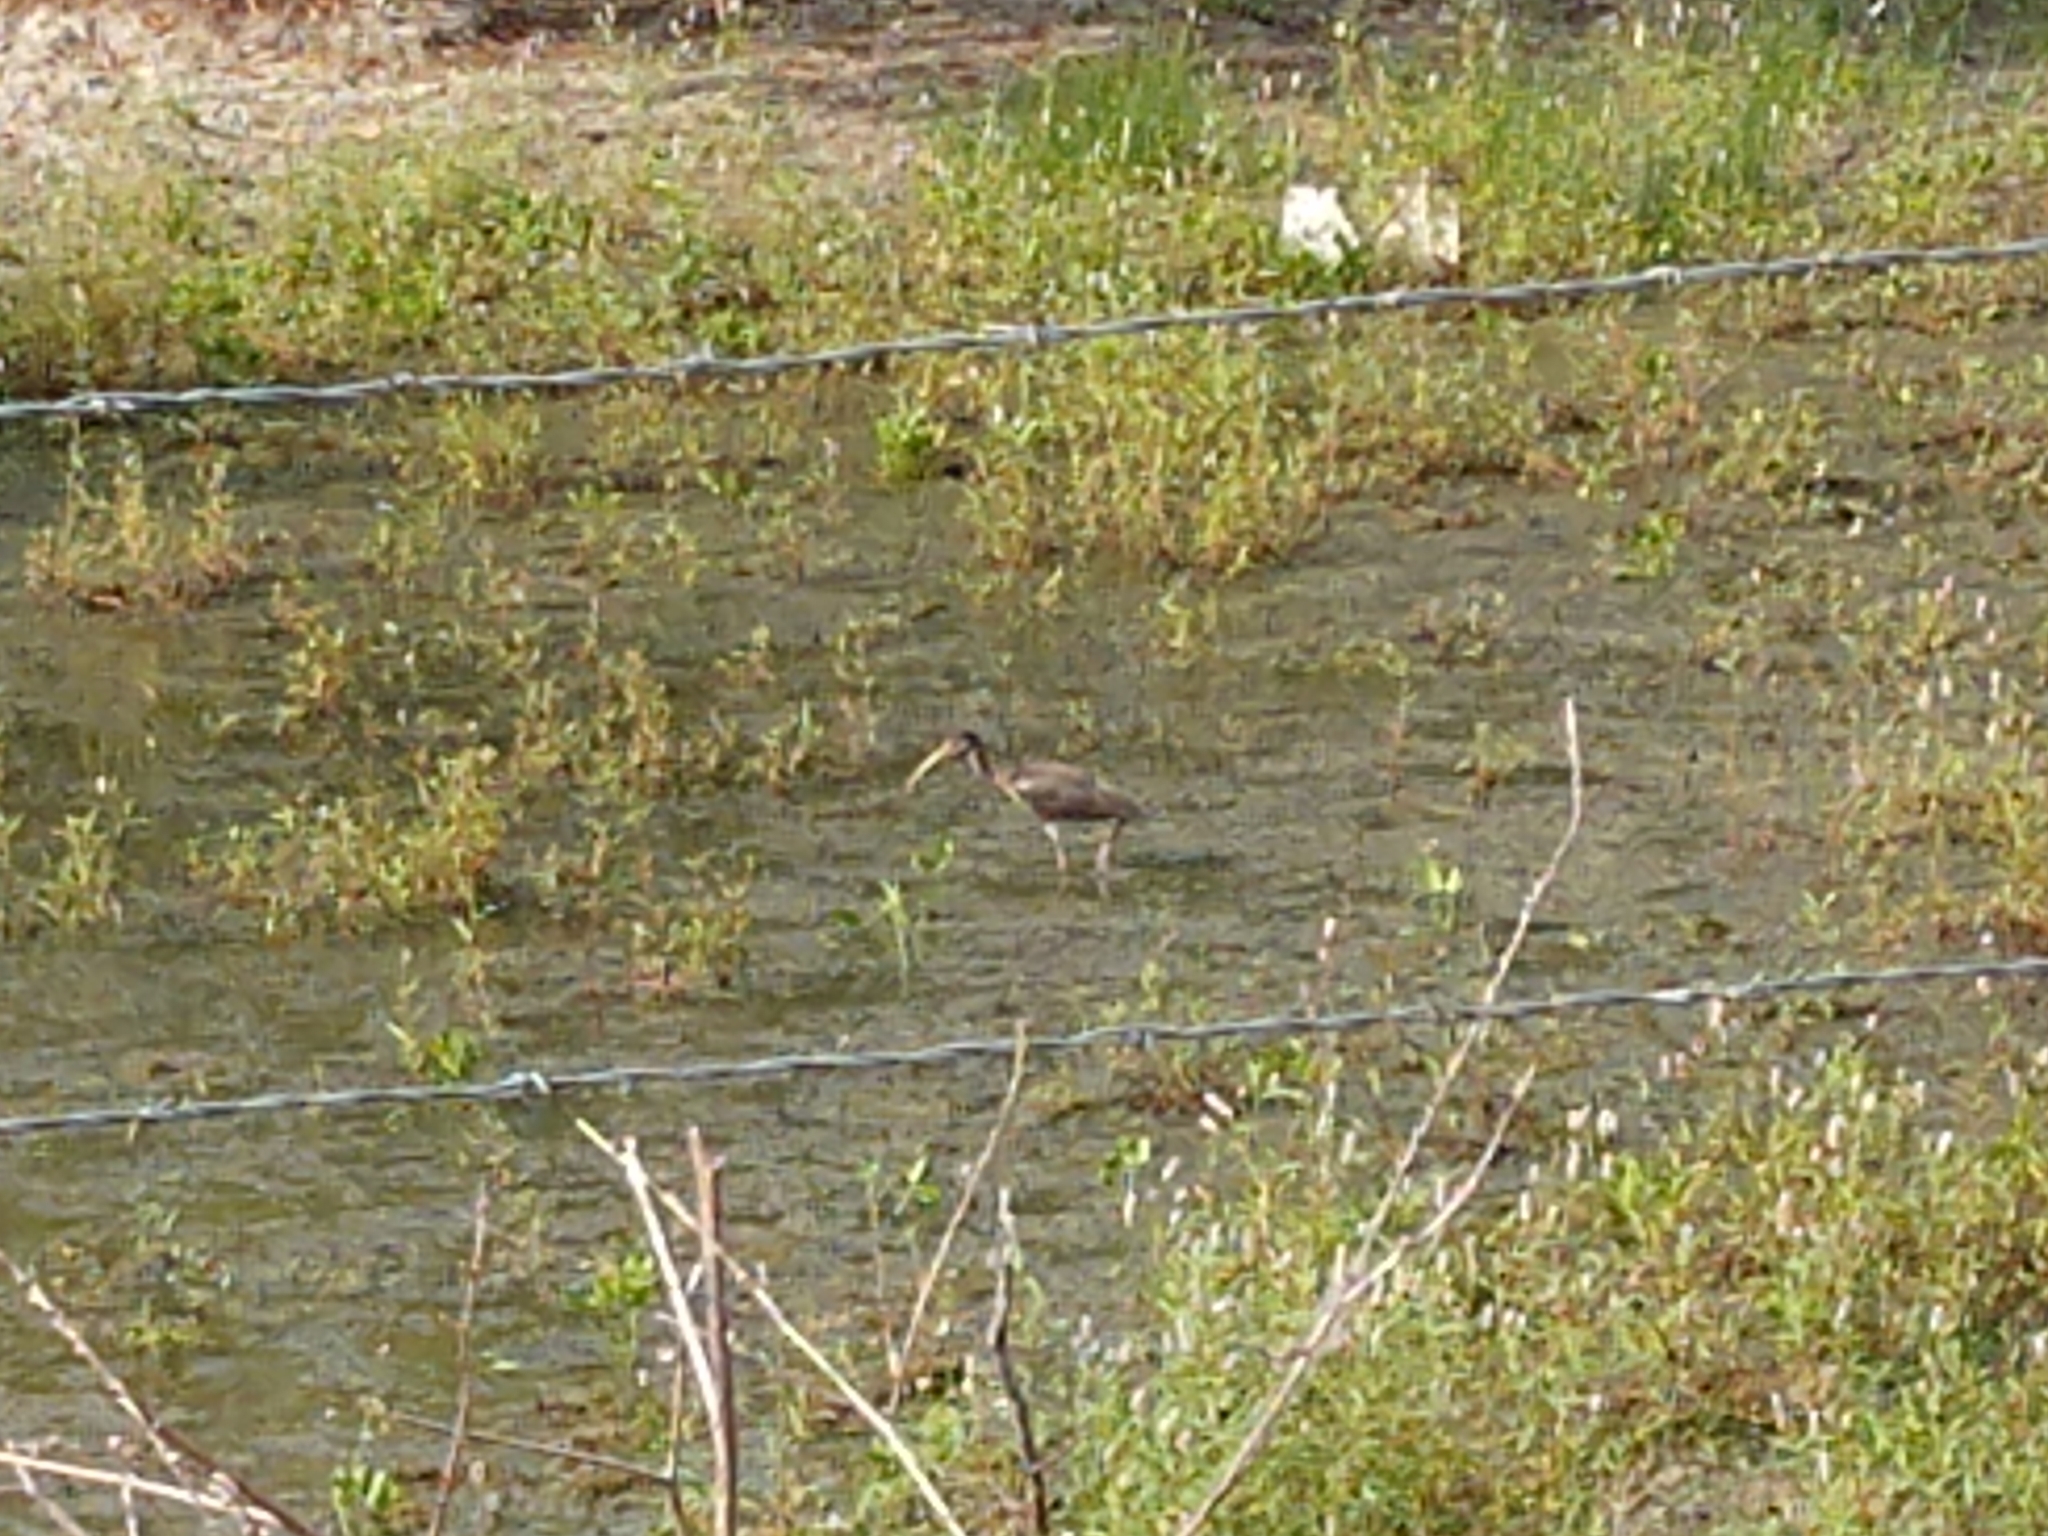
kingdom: Animalia
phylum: Chordata
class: Aves
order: Pelecaniformes
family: Threskiornithidae
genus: Eudocimus
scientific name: Eudocimus albus
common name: White ibis
